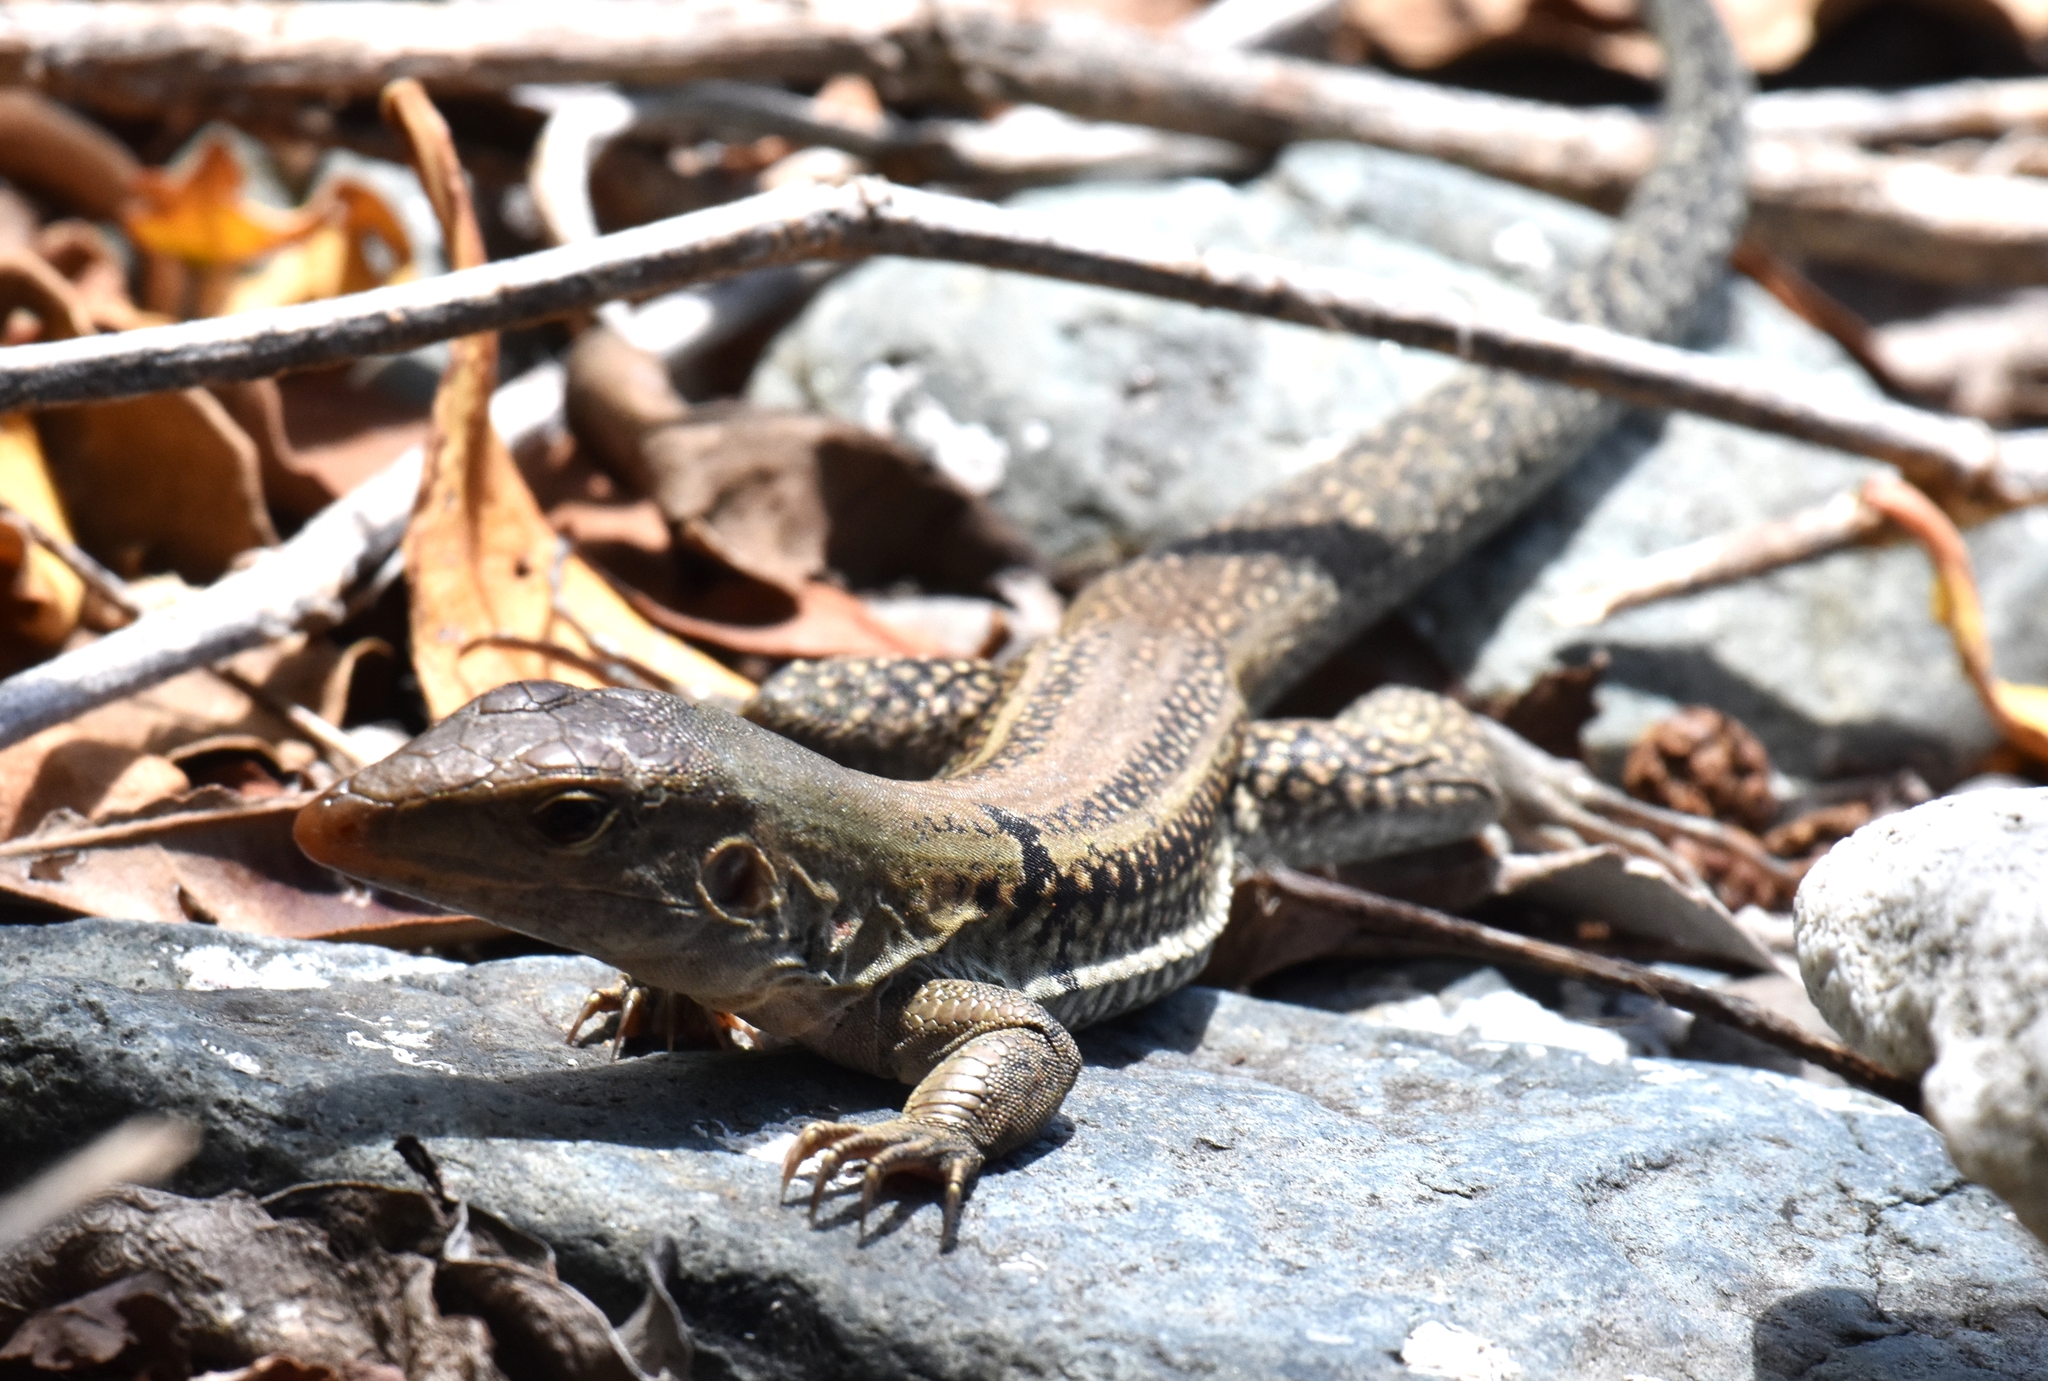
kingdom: Animalia
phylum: Chordata
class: Squamata
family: Teiidae
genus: Pholidoscelis
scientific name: Pholidoscelis exsul
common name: Common puerto rican ameiva
